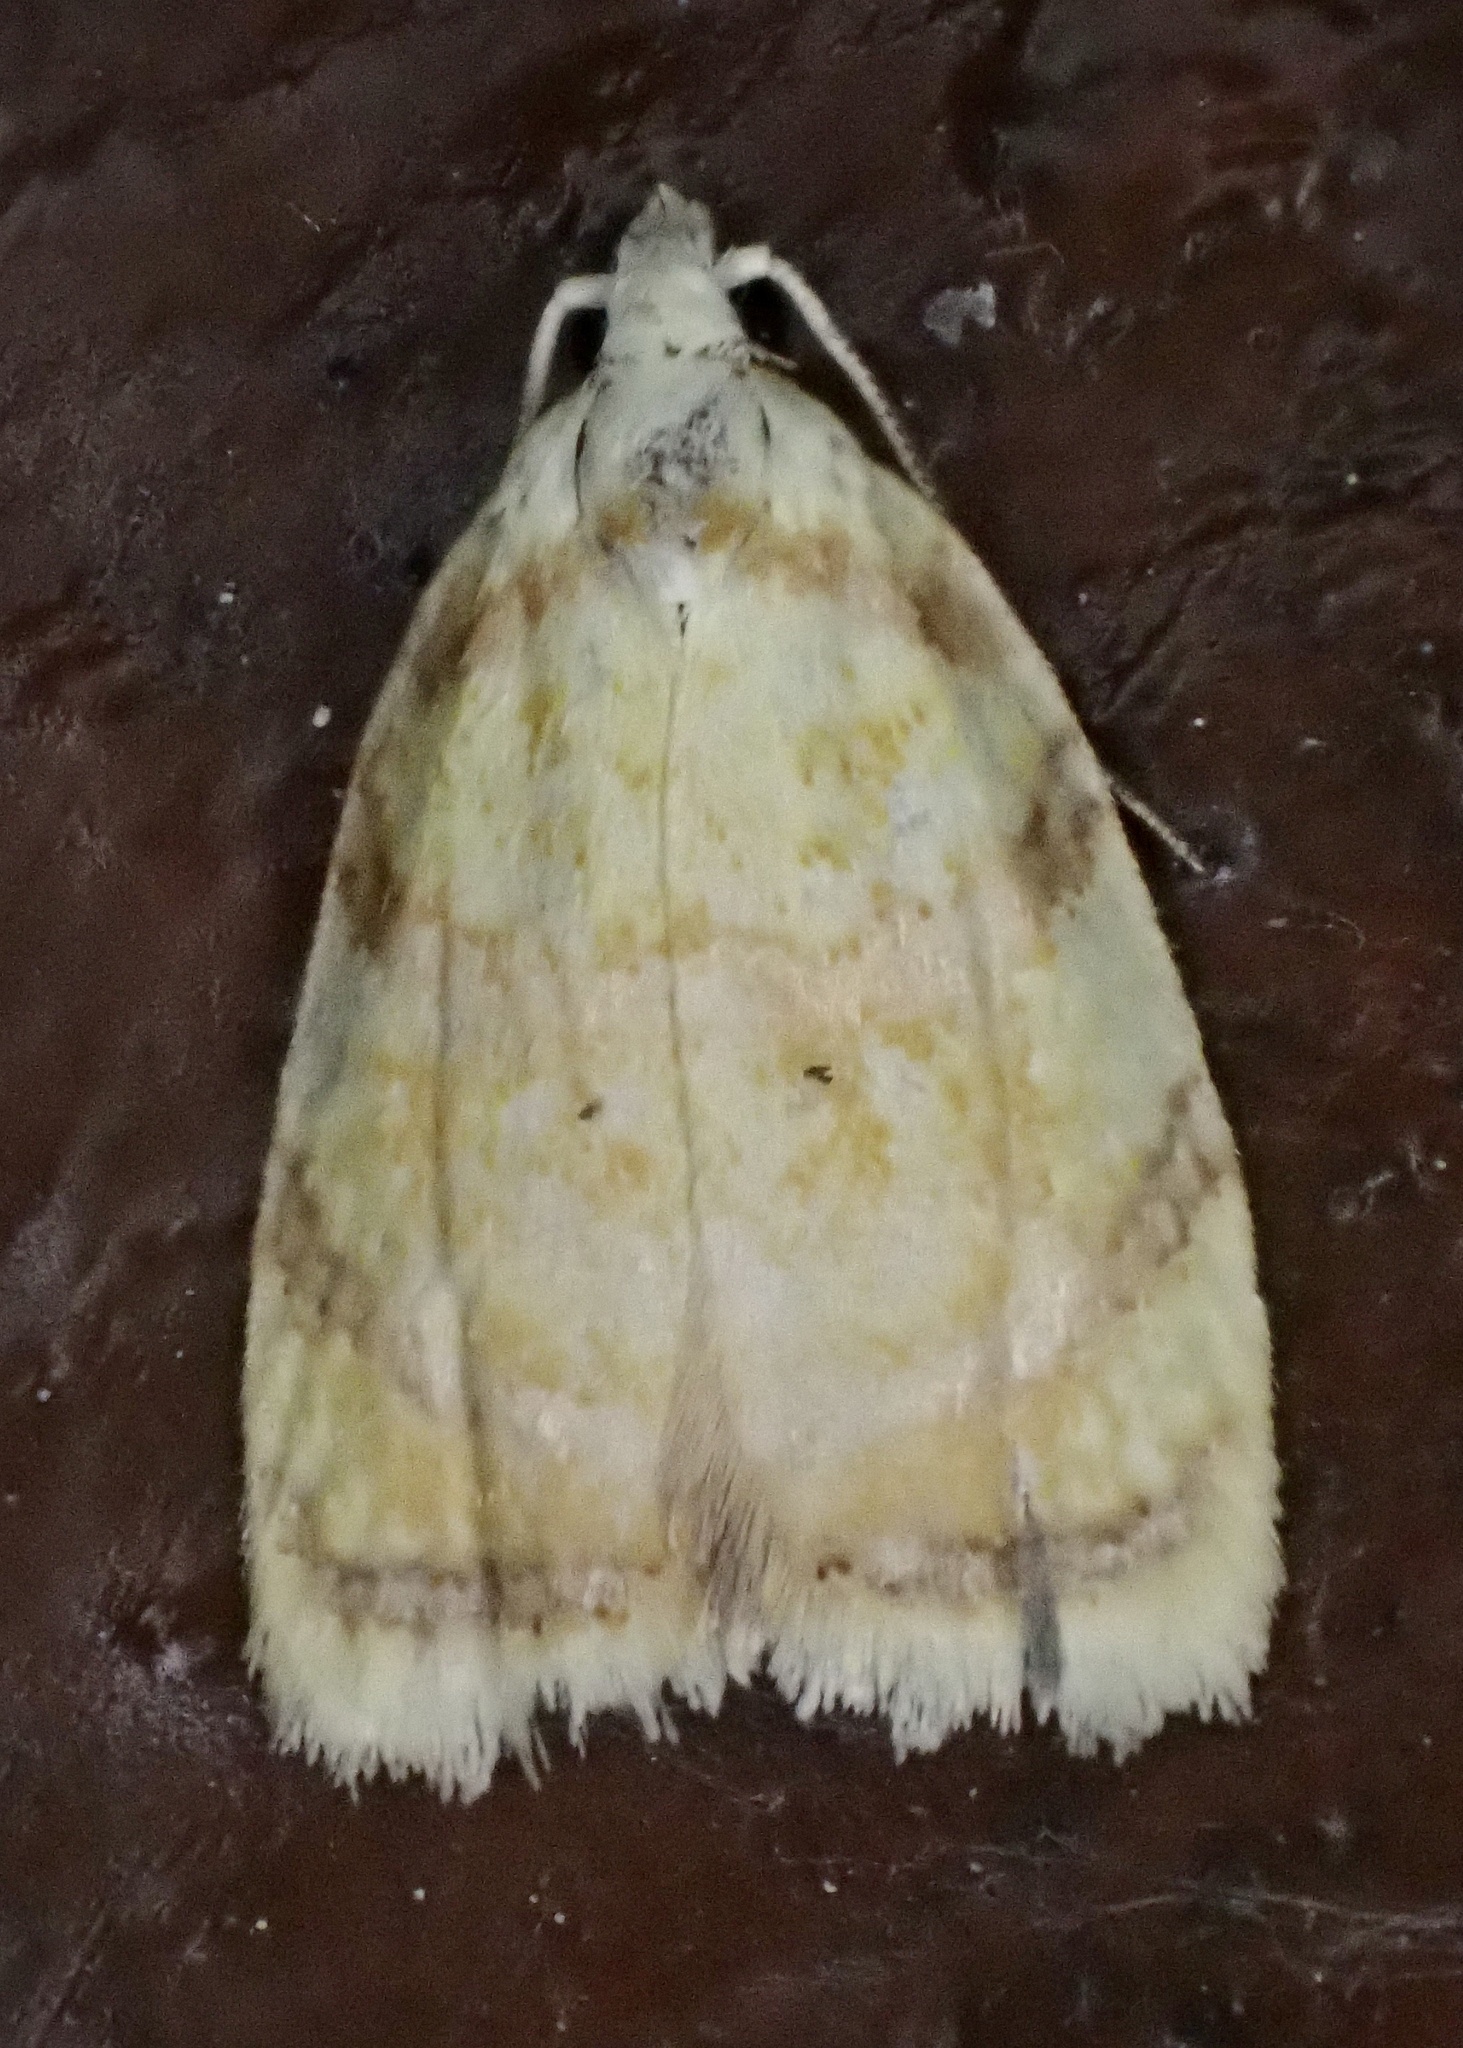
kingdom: Animalia
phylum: Arthropoda
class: Insecta
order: Lepidoptera
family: Tortricidae
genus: Acleris
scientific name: Acleris albicomana
